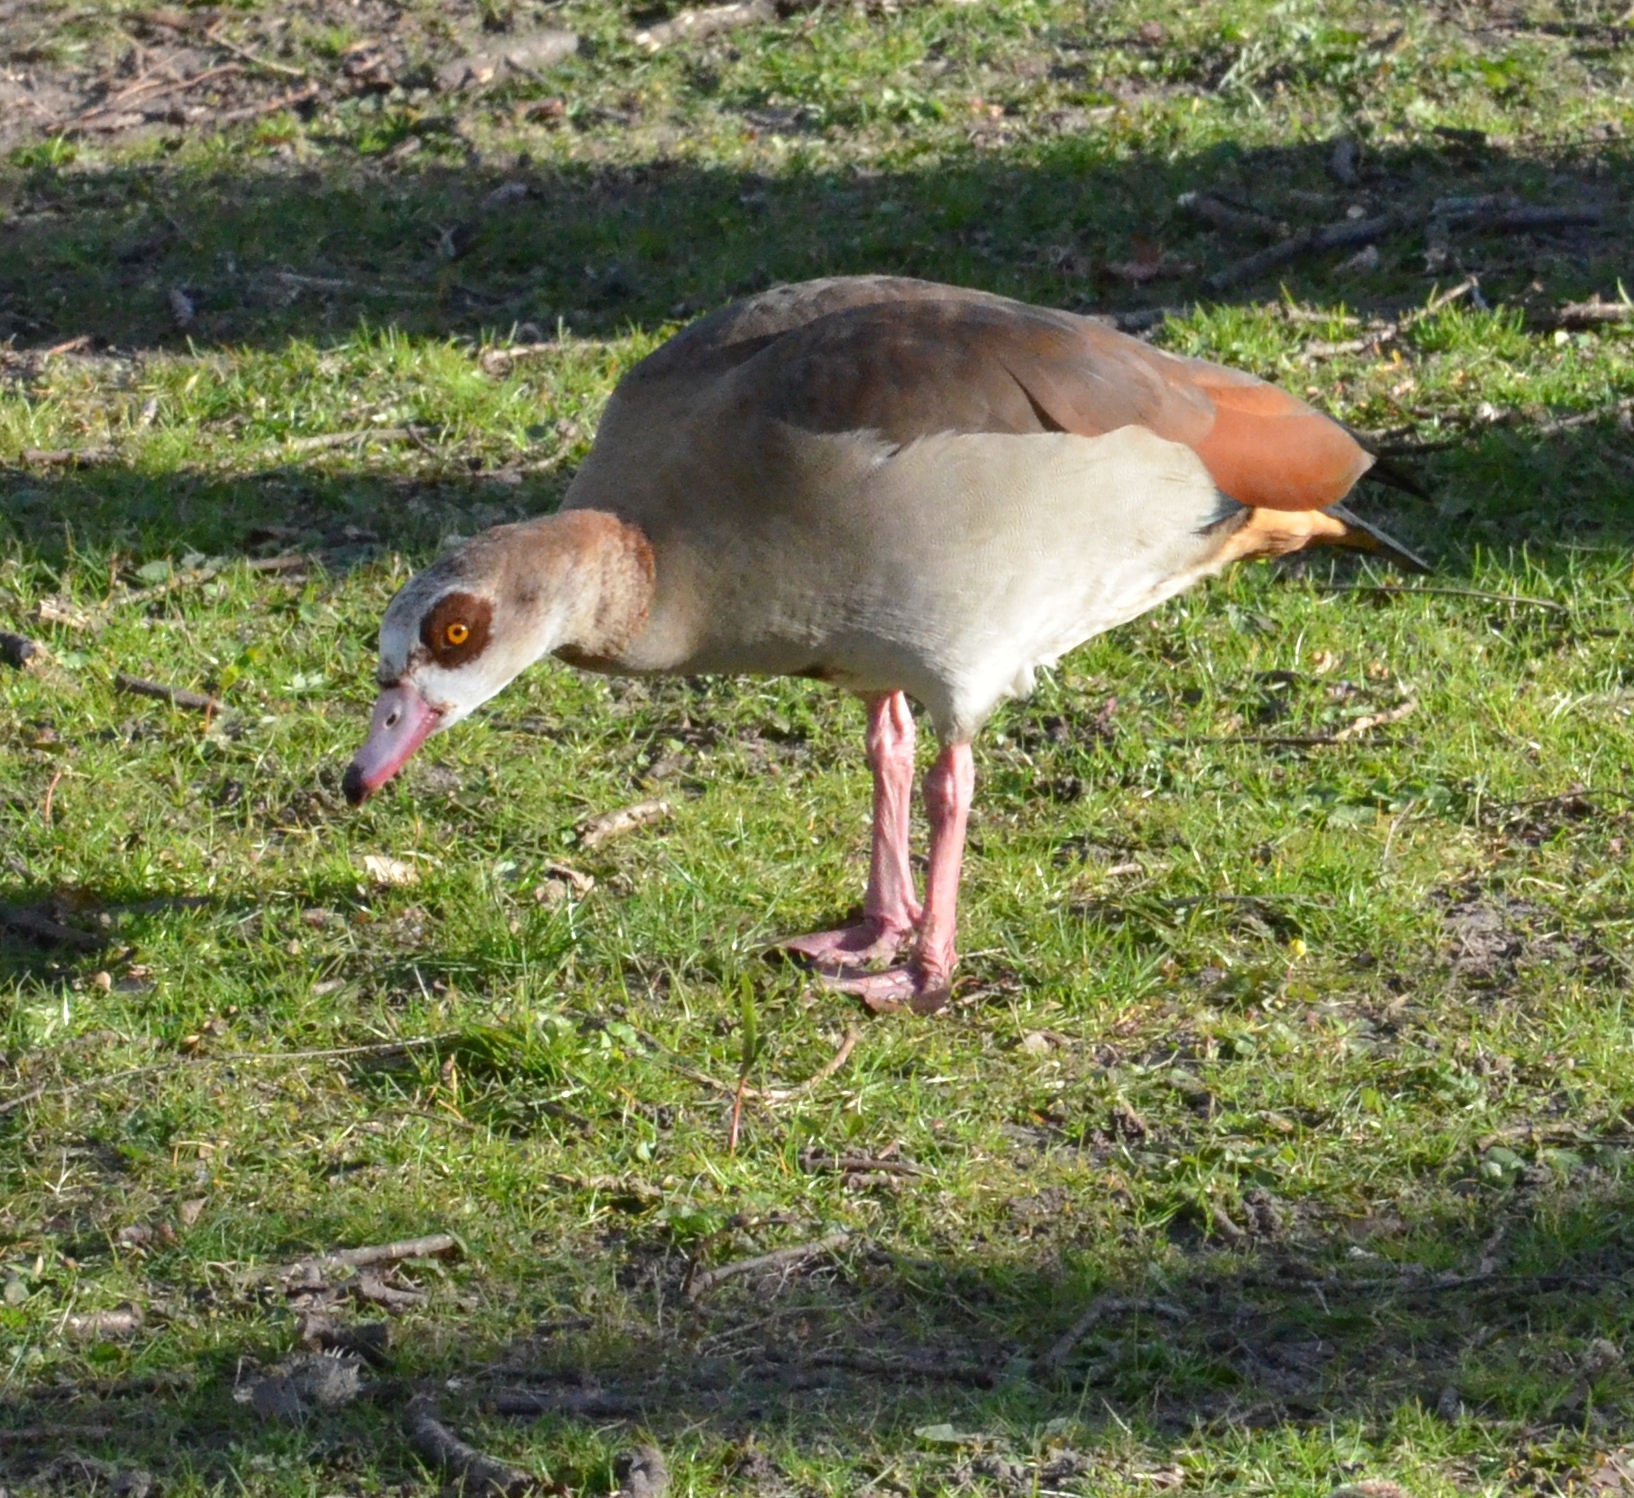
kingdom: Animalia
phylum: Chordata
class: Aves
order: Anseriformes
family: Anatidae
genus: Alopochen
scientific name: Alopochen aegyptiaca
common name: Egyptian goose
